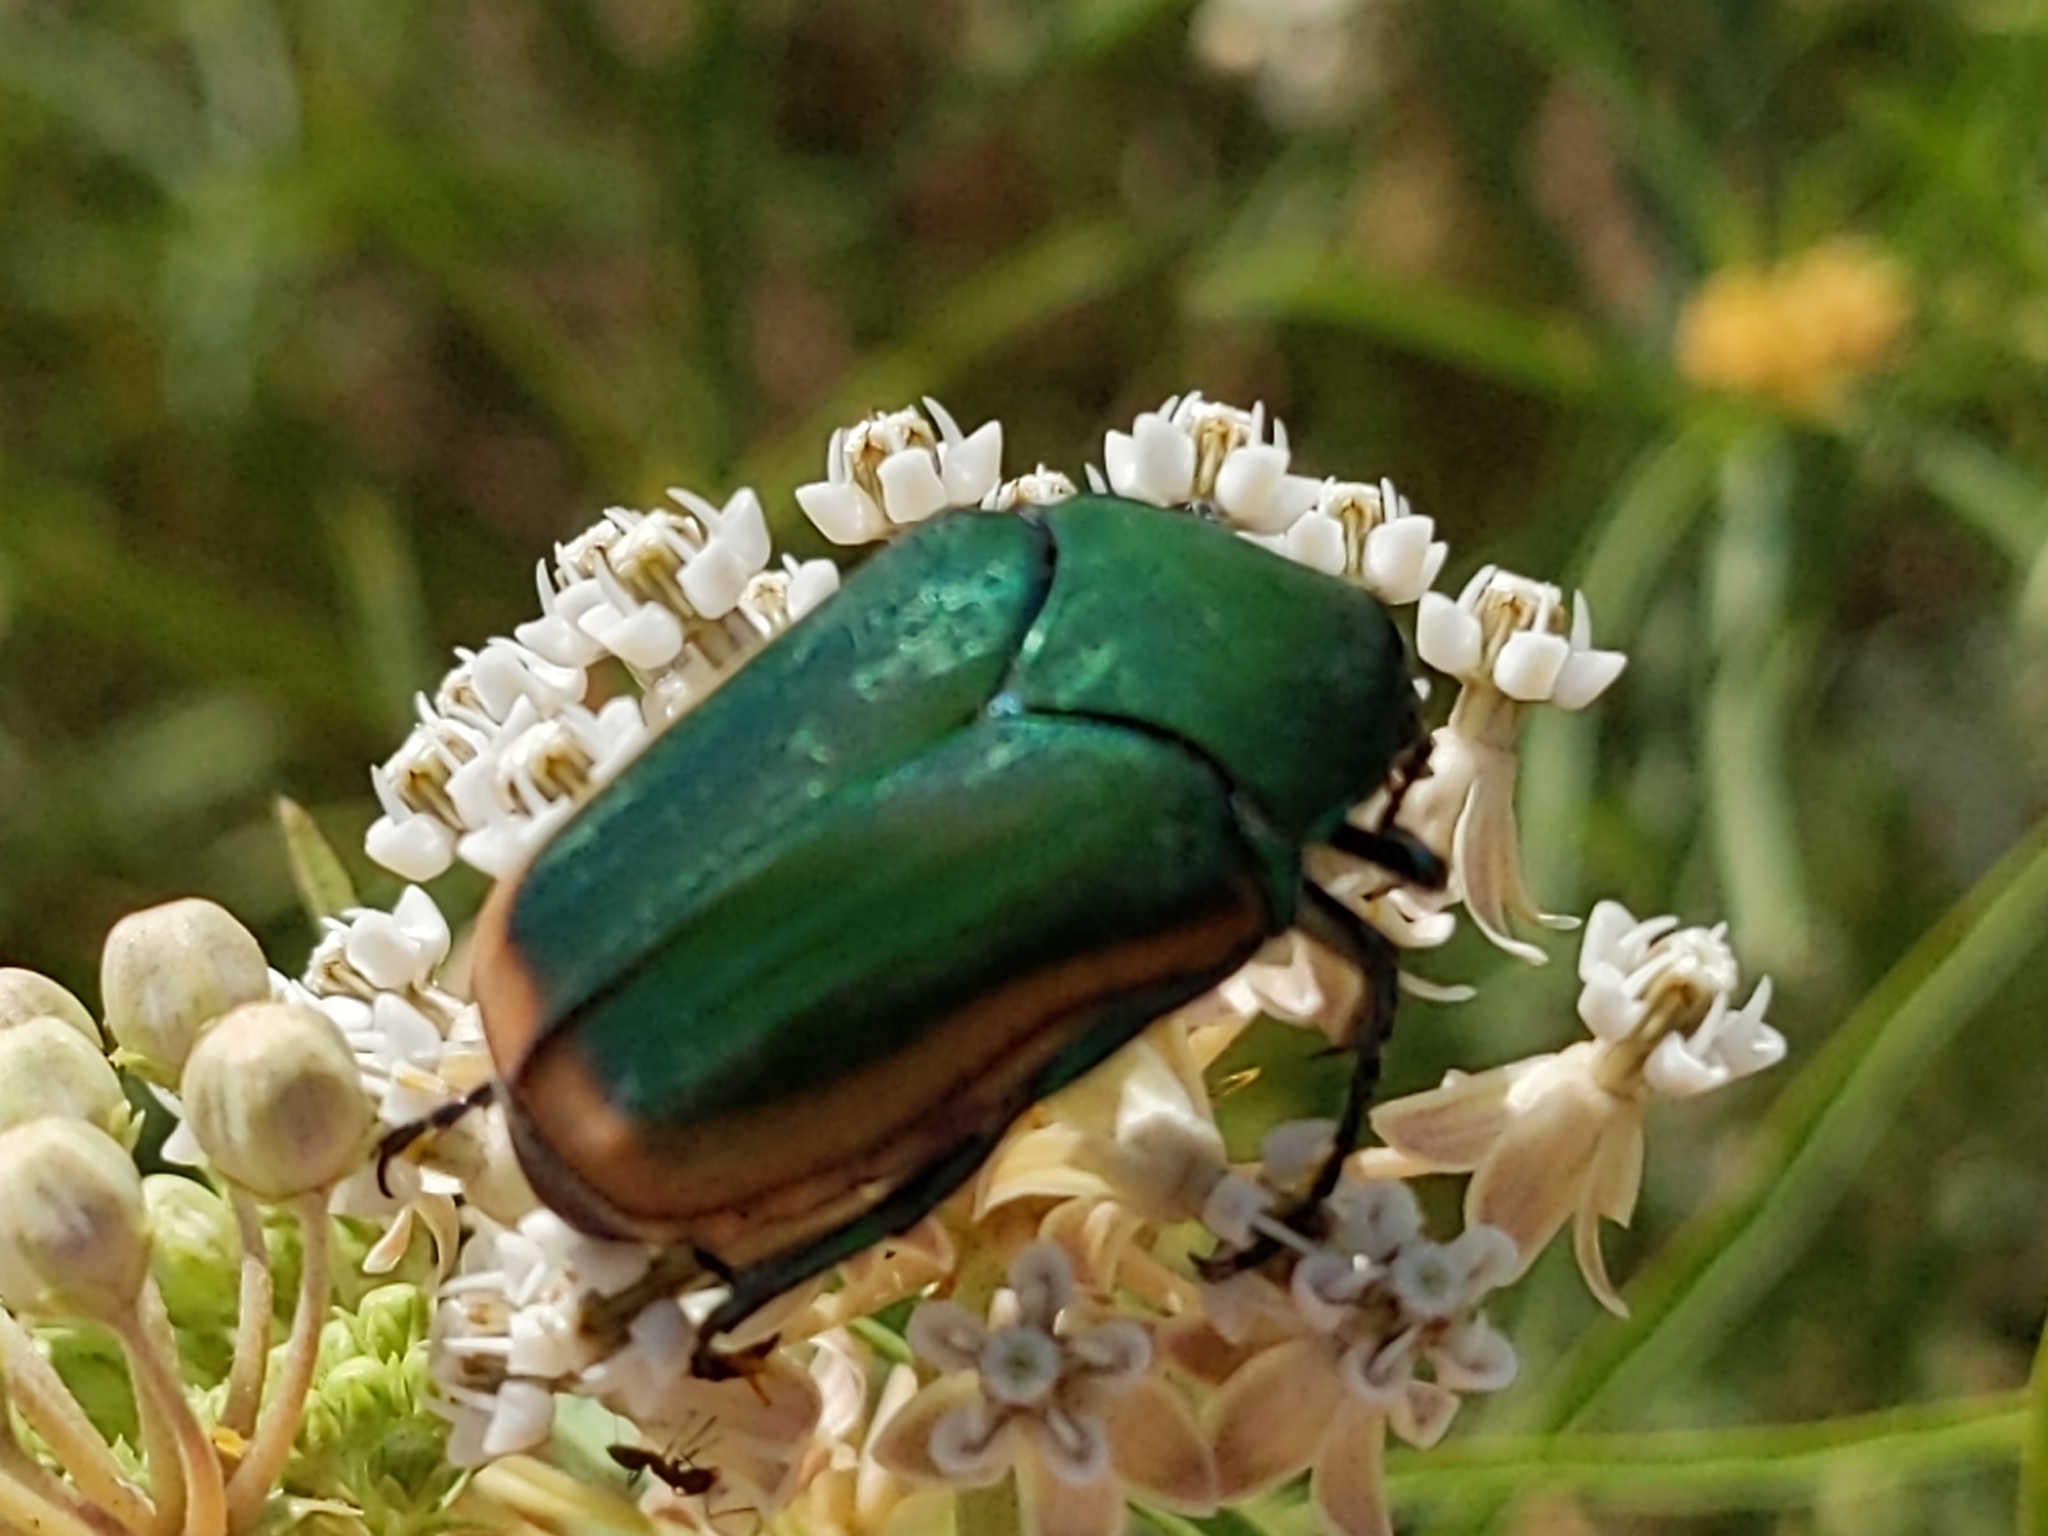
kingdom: Animalia
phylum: Arthropoda
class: Insecta
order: Coleoptera
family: Scarabaeidae
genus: Cotinis
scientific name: Cotinis mutabilis
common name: Figeater beetle
